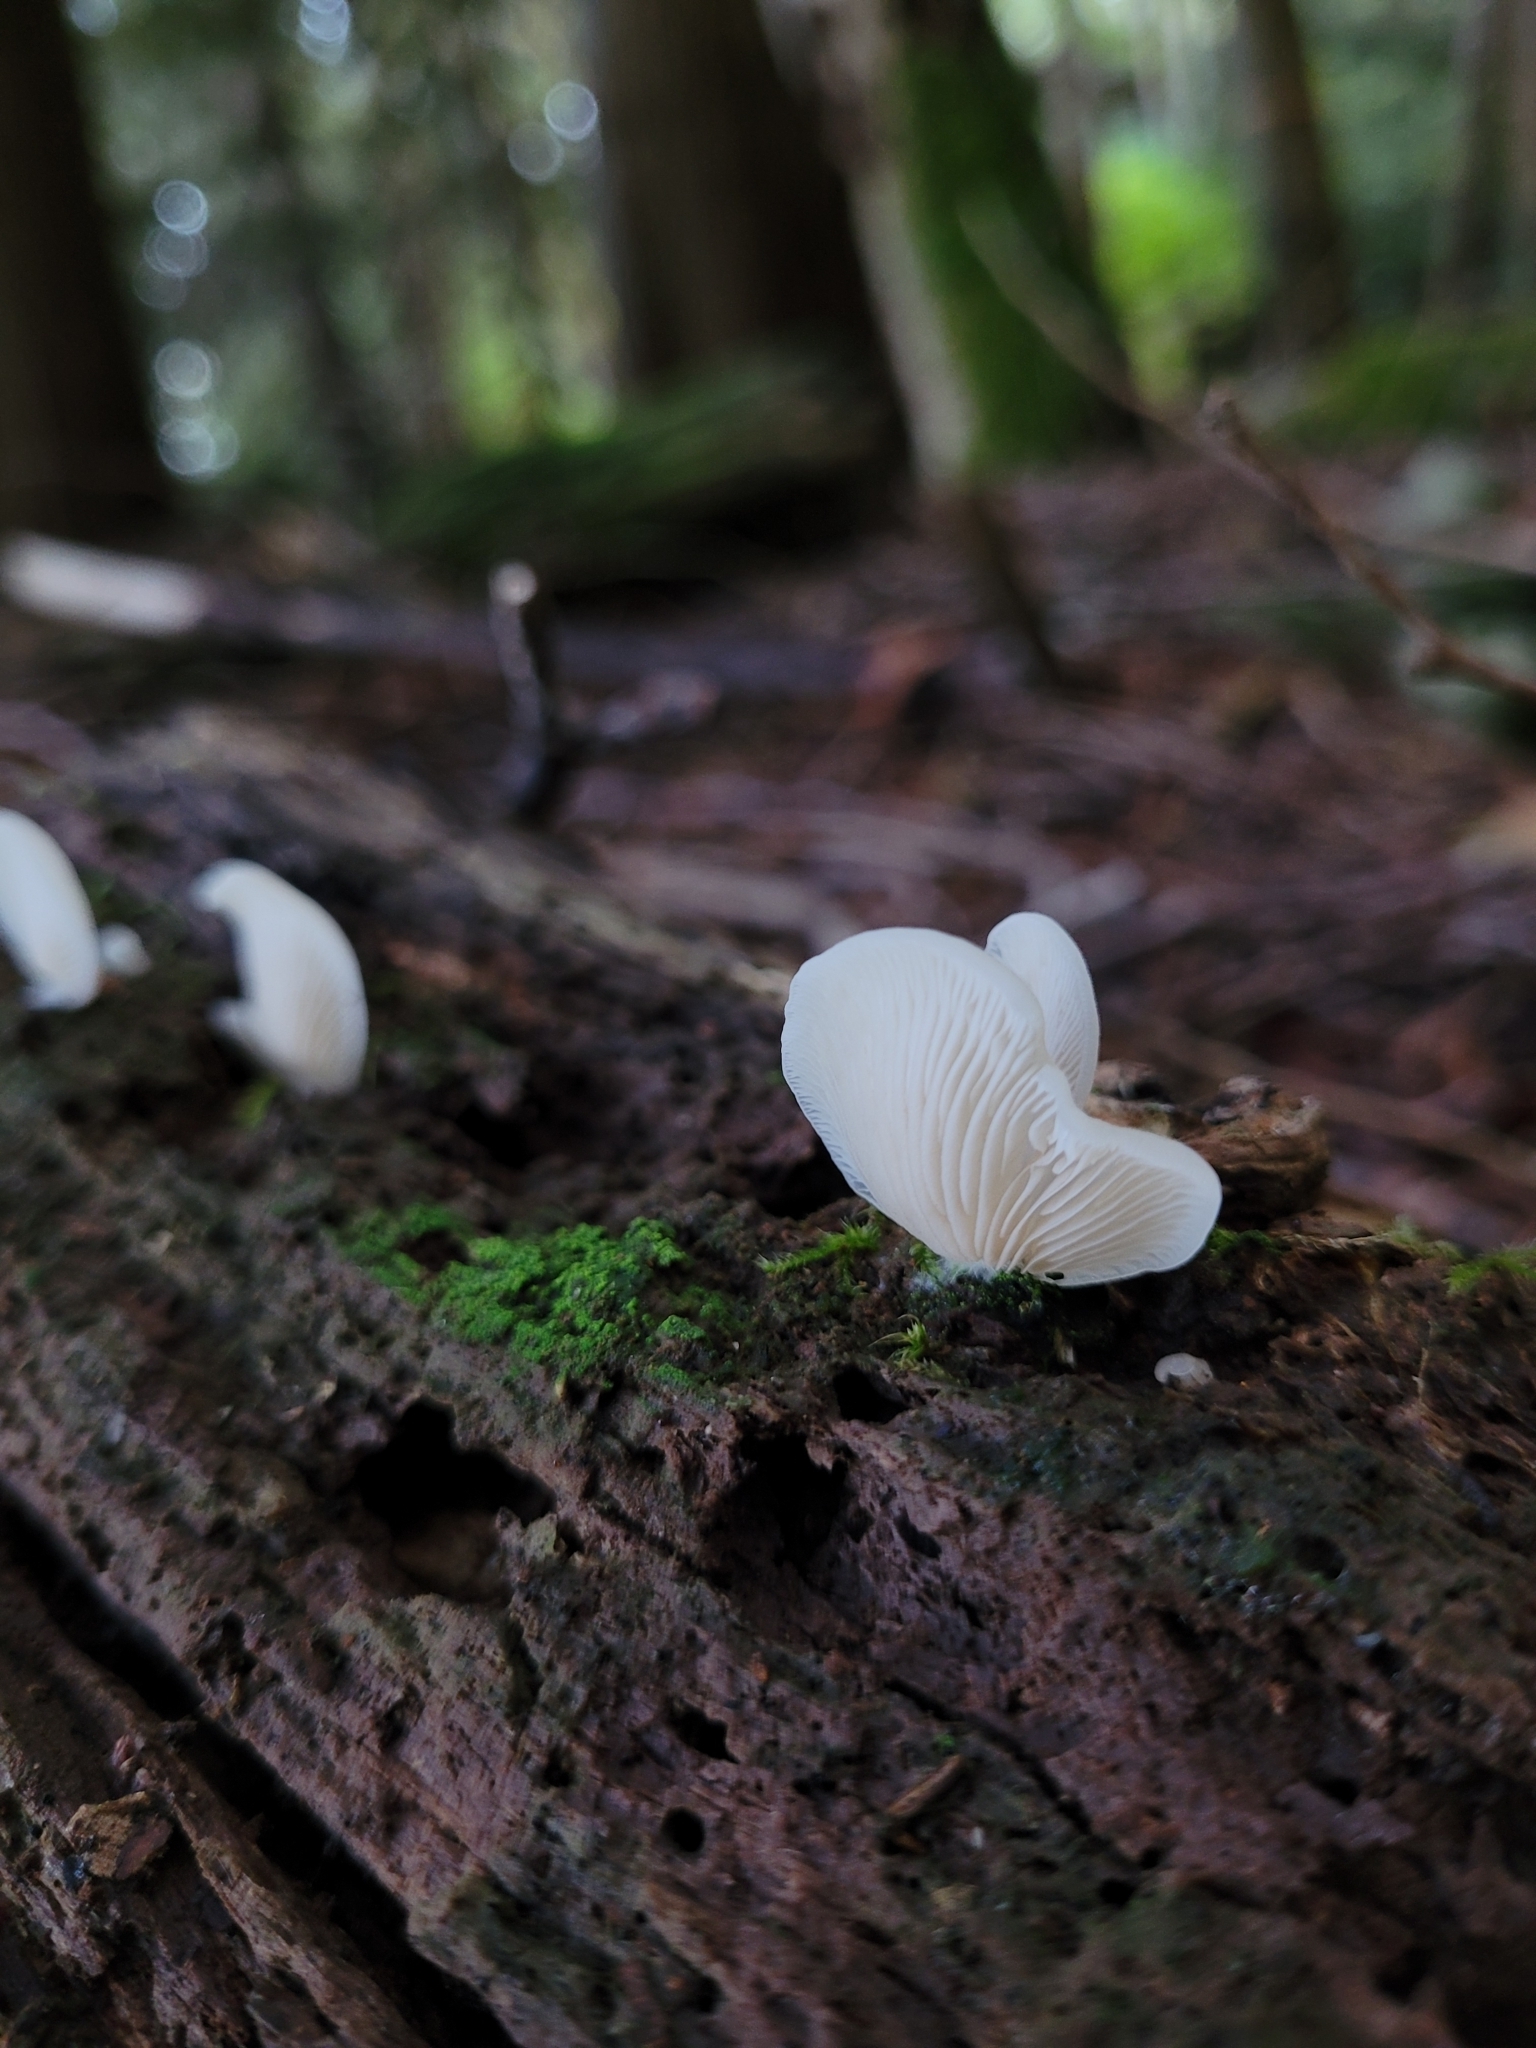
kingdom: Fungi
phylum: Basidiomycota
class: Agaricomycetes
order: Agaricales
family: Marasmiaceae
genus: Pleurocybella
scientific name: Pleurocybella porrigens
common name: Angel's wings
